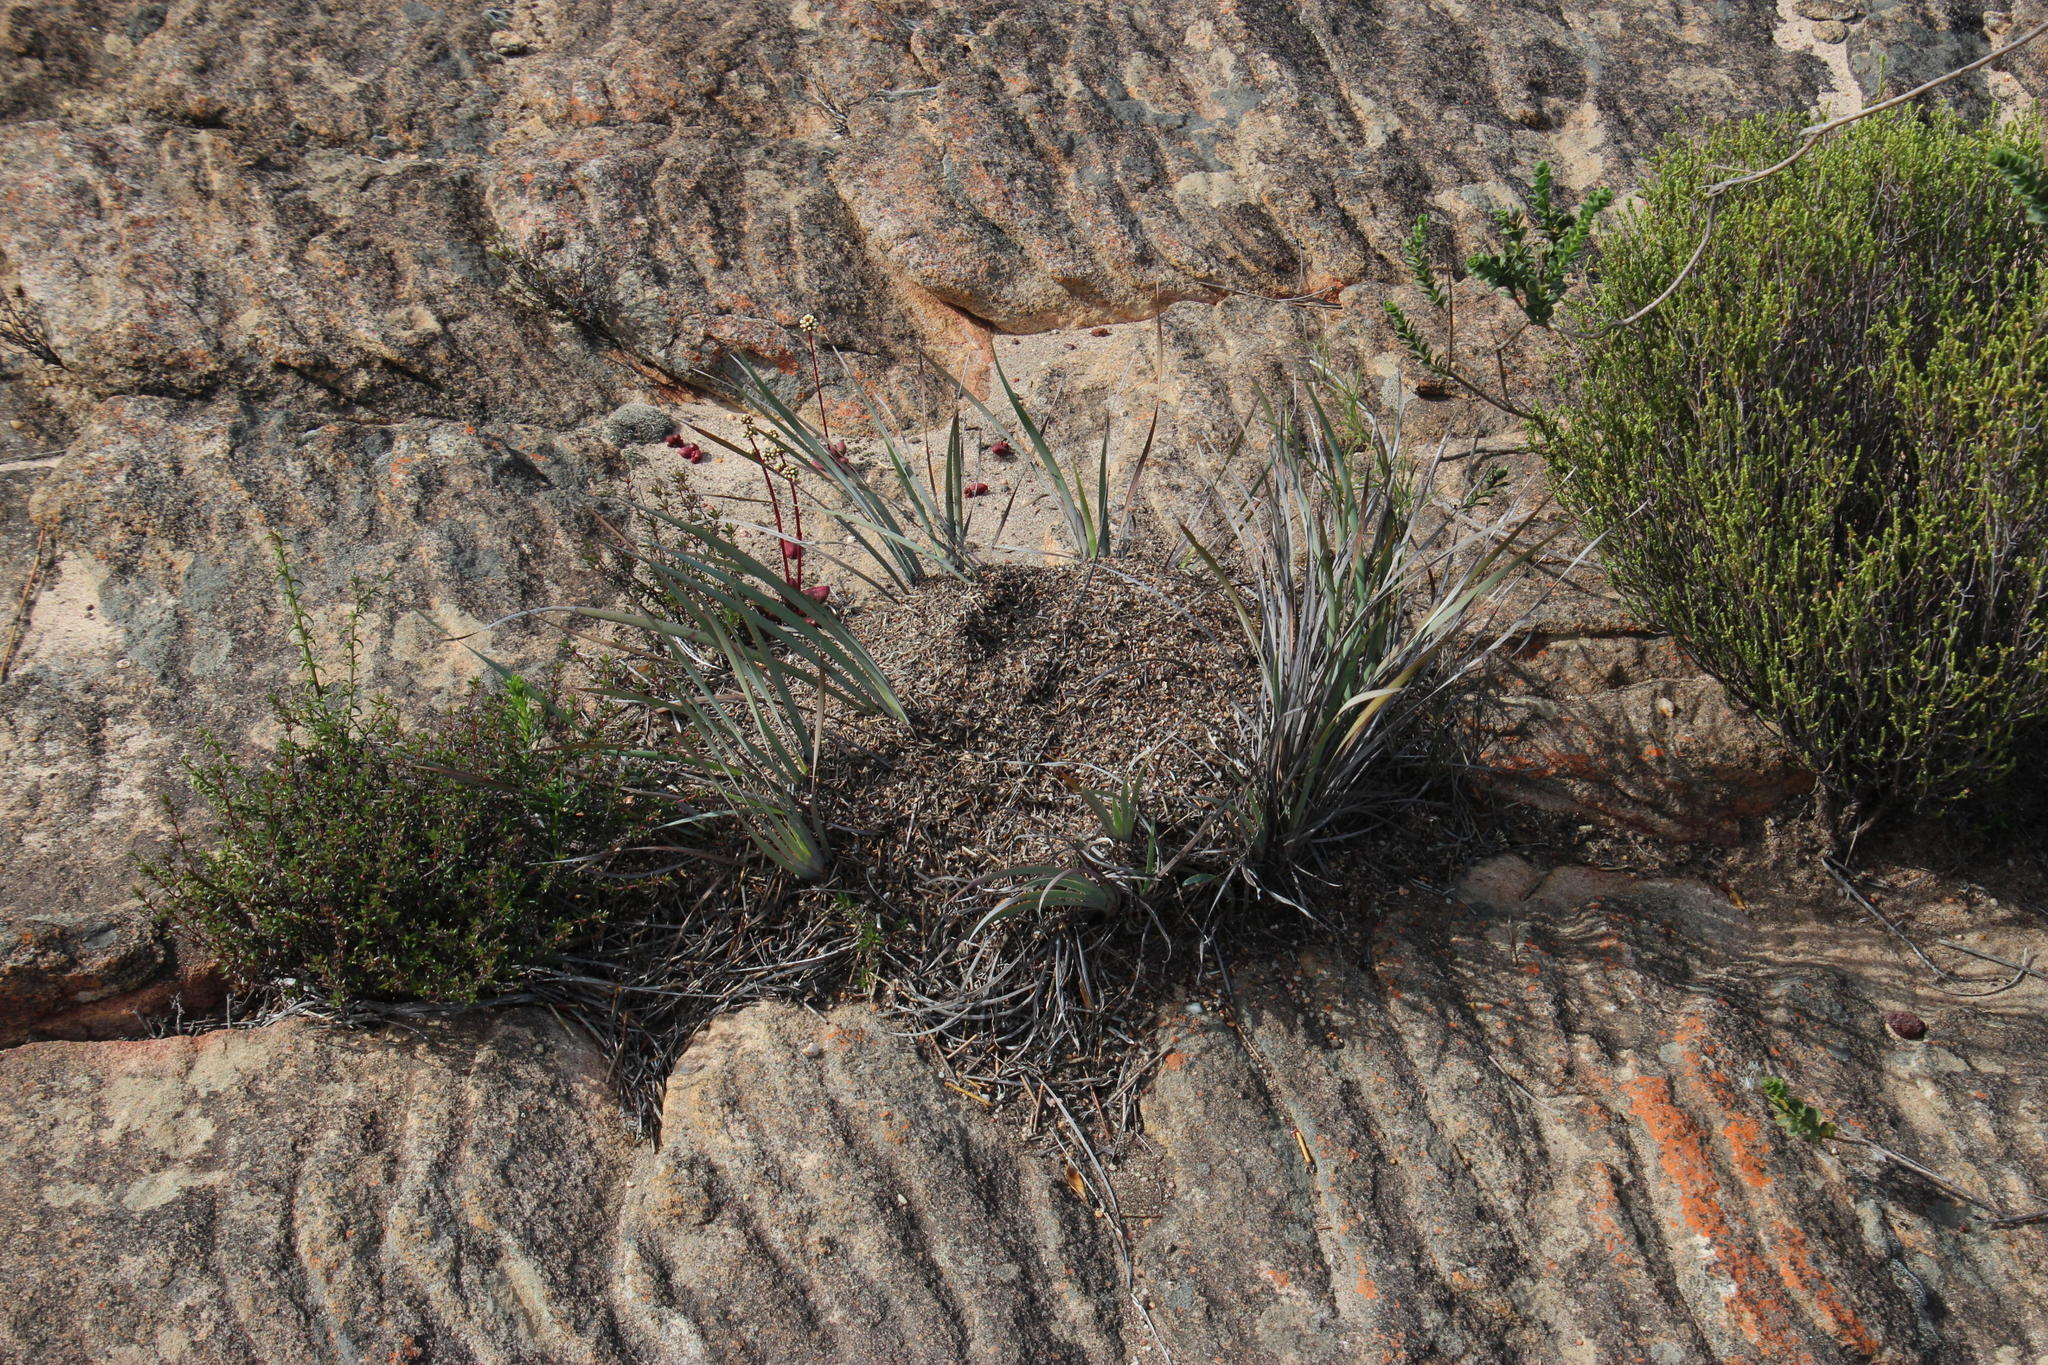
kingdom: Animalia
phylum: Arthropoda
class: Insecta
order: Hymenoptera
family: Formicidae
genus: Monomorium
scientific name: Monomorium fridae
